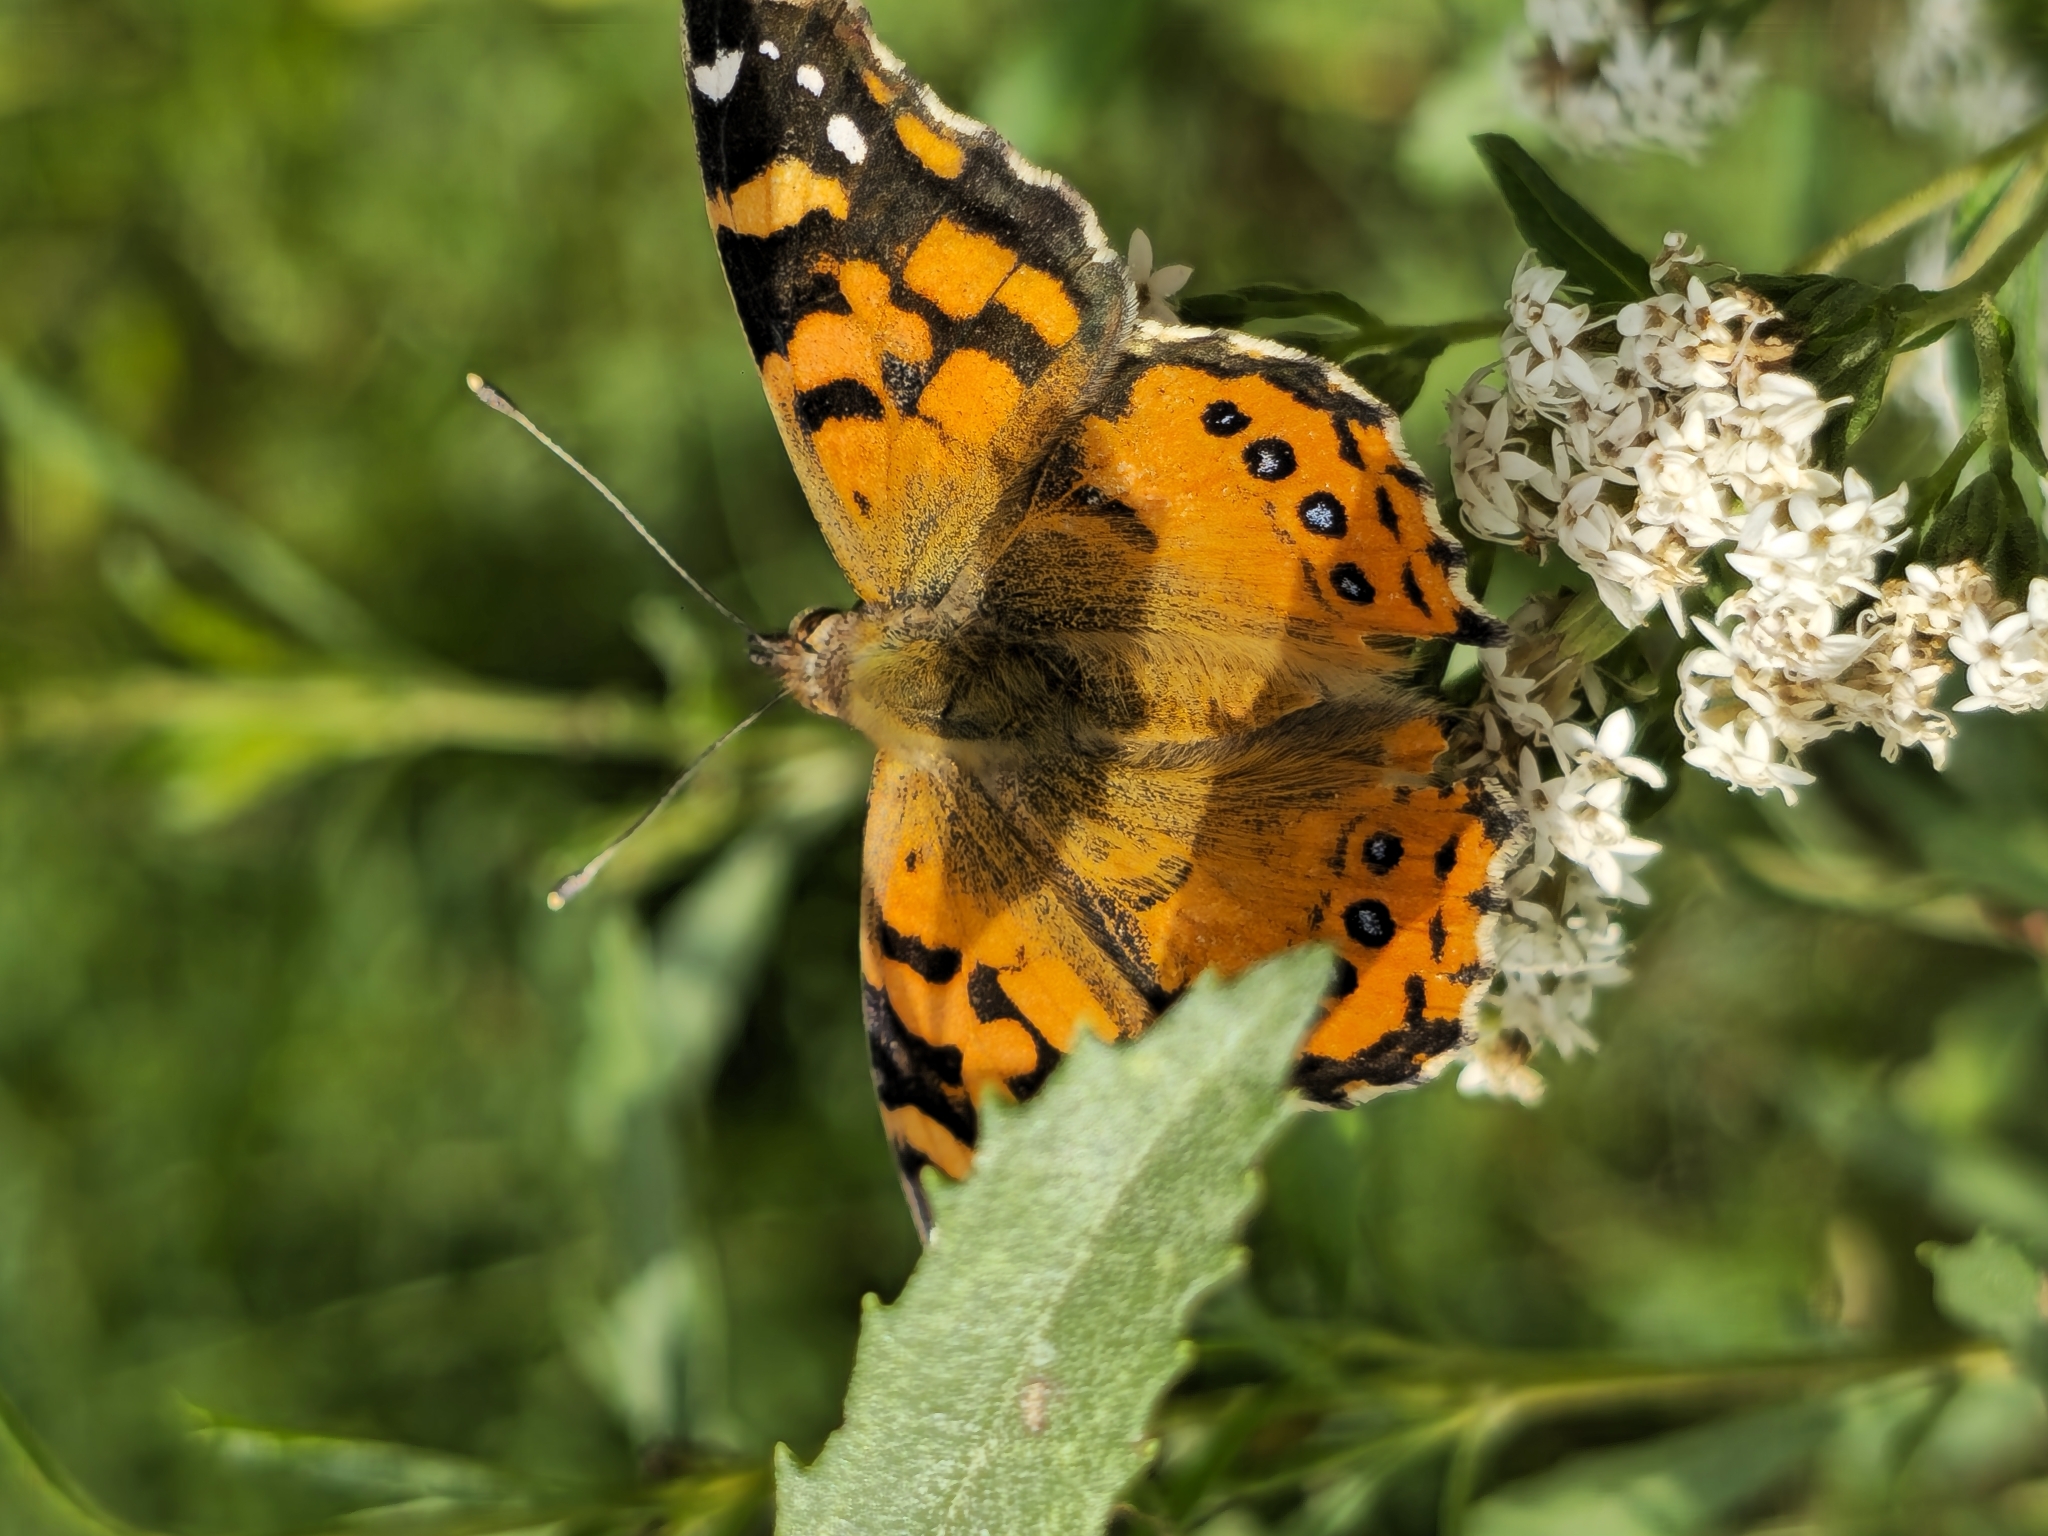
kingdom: Animalia
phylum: Arthropoda
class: Insecta
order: Lepidoptera
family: Nymphalidae
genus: Vanessa
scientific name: Vanessa carye
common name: Subtropical lady
